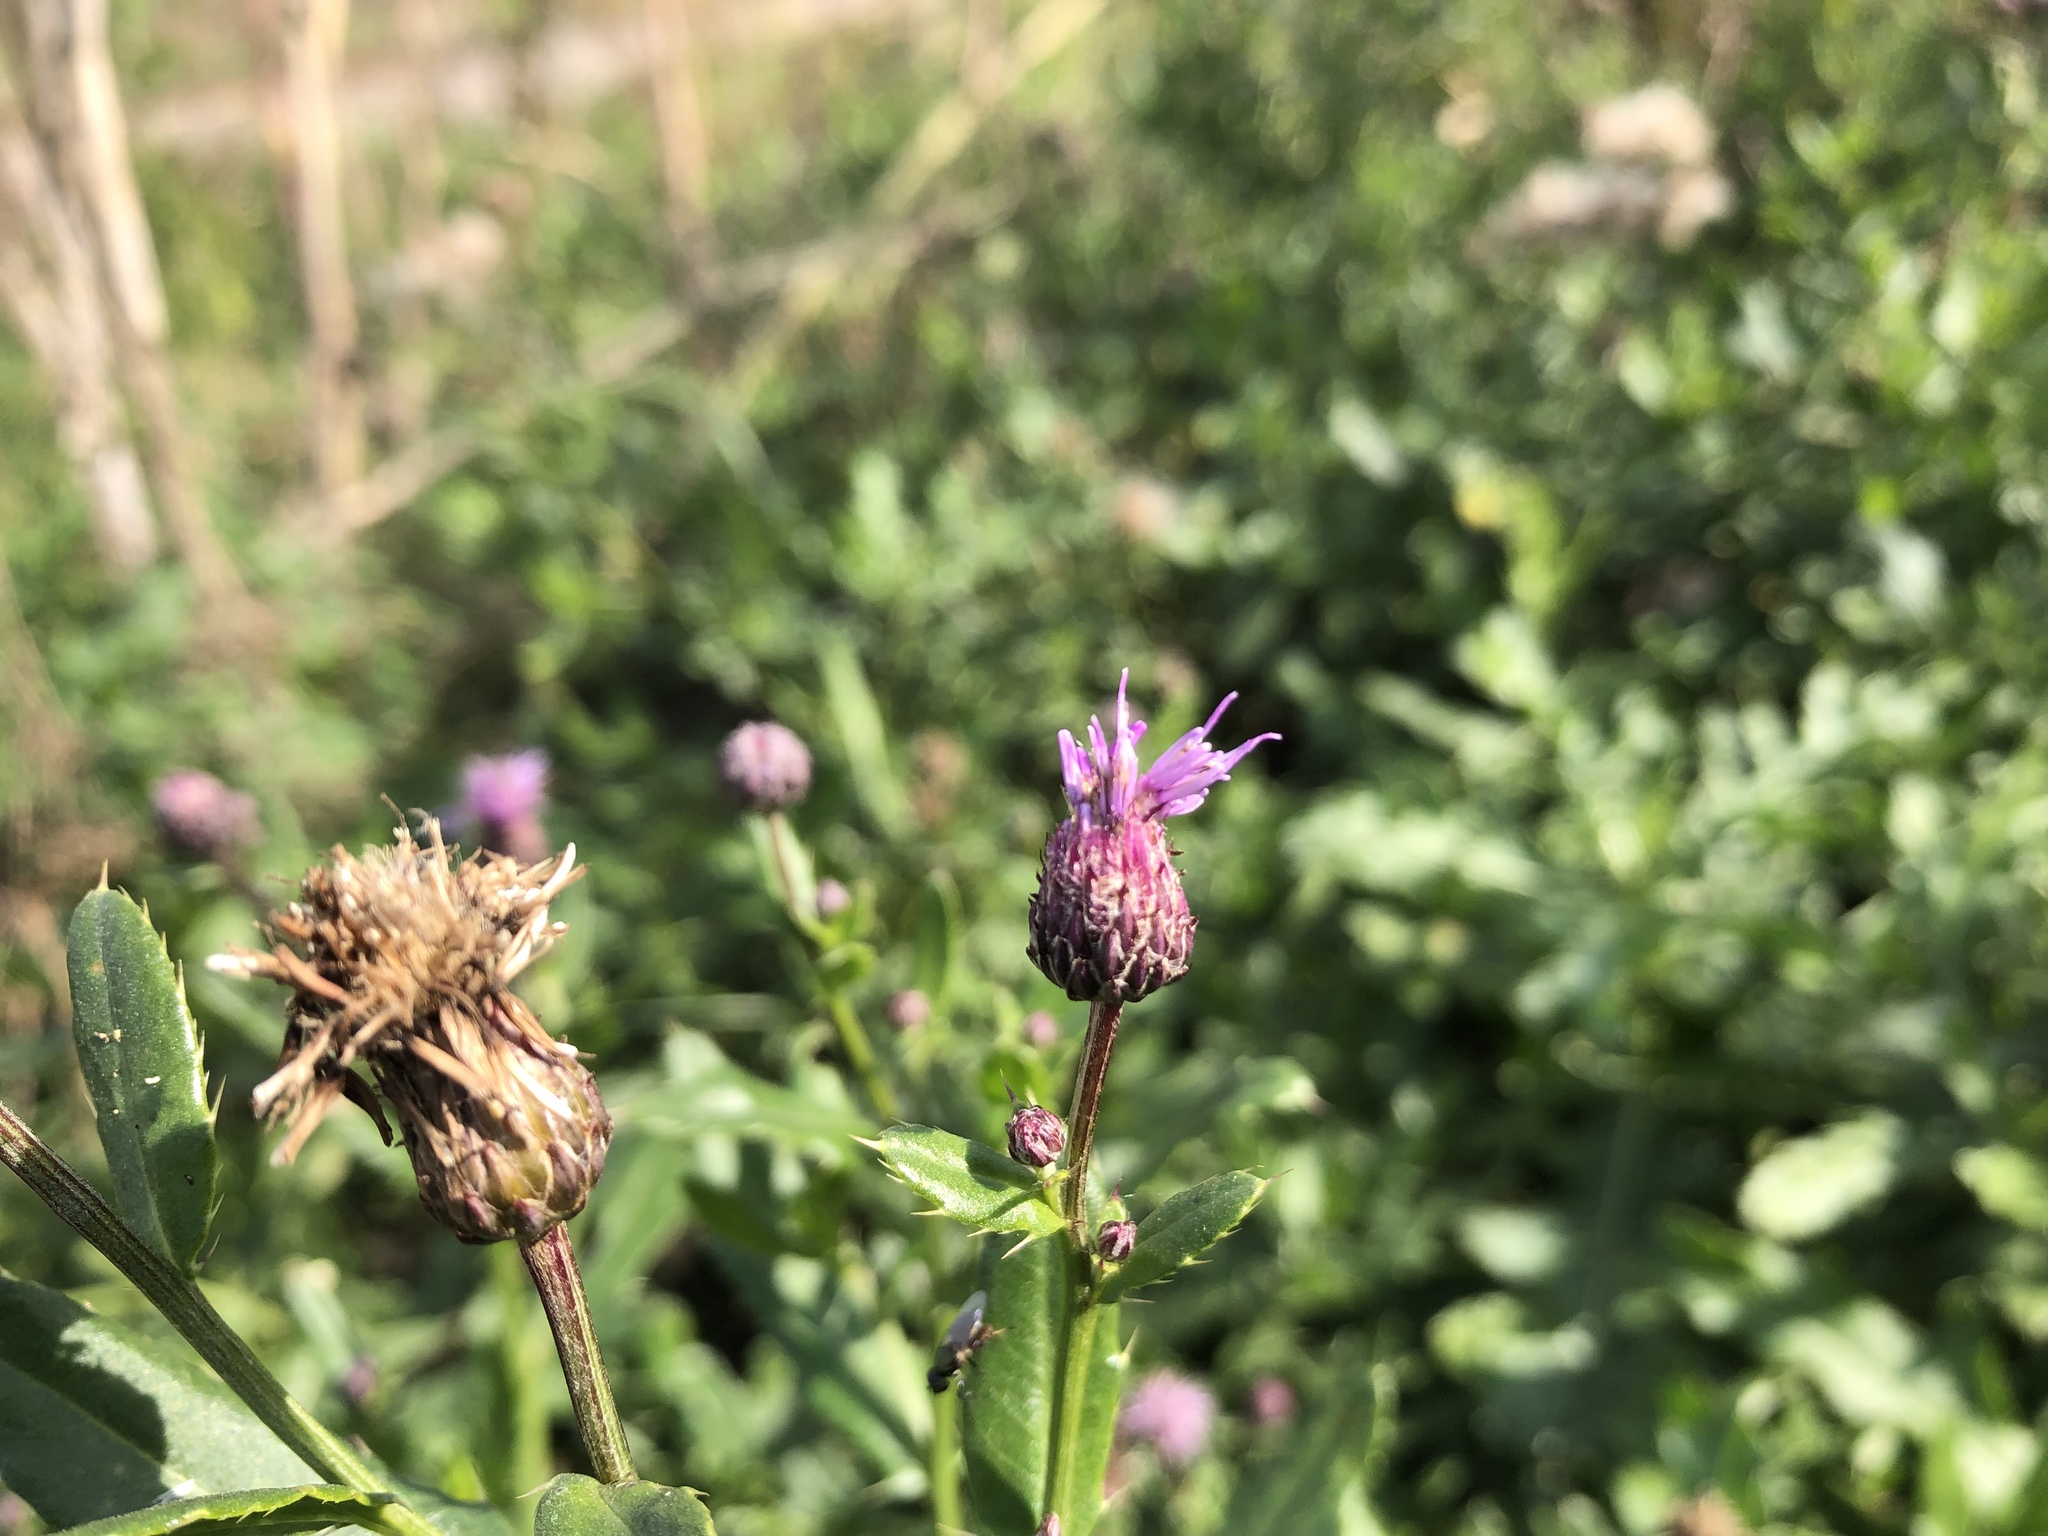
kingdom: Plantae
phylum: Tracheophyta
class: Magnoliopsida
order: Asterales
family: Asteraceae
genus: Cirsium
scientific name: Cirsium arvense
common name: Creeping thistle
